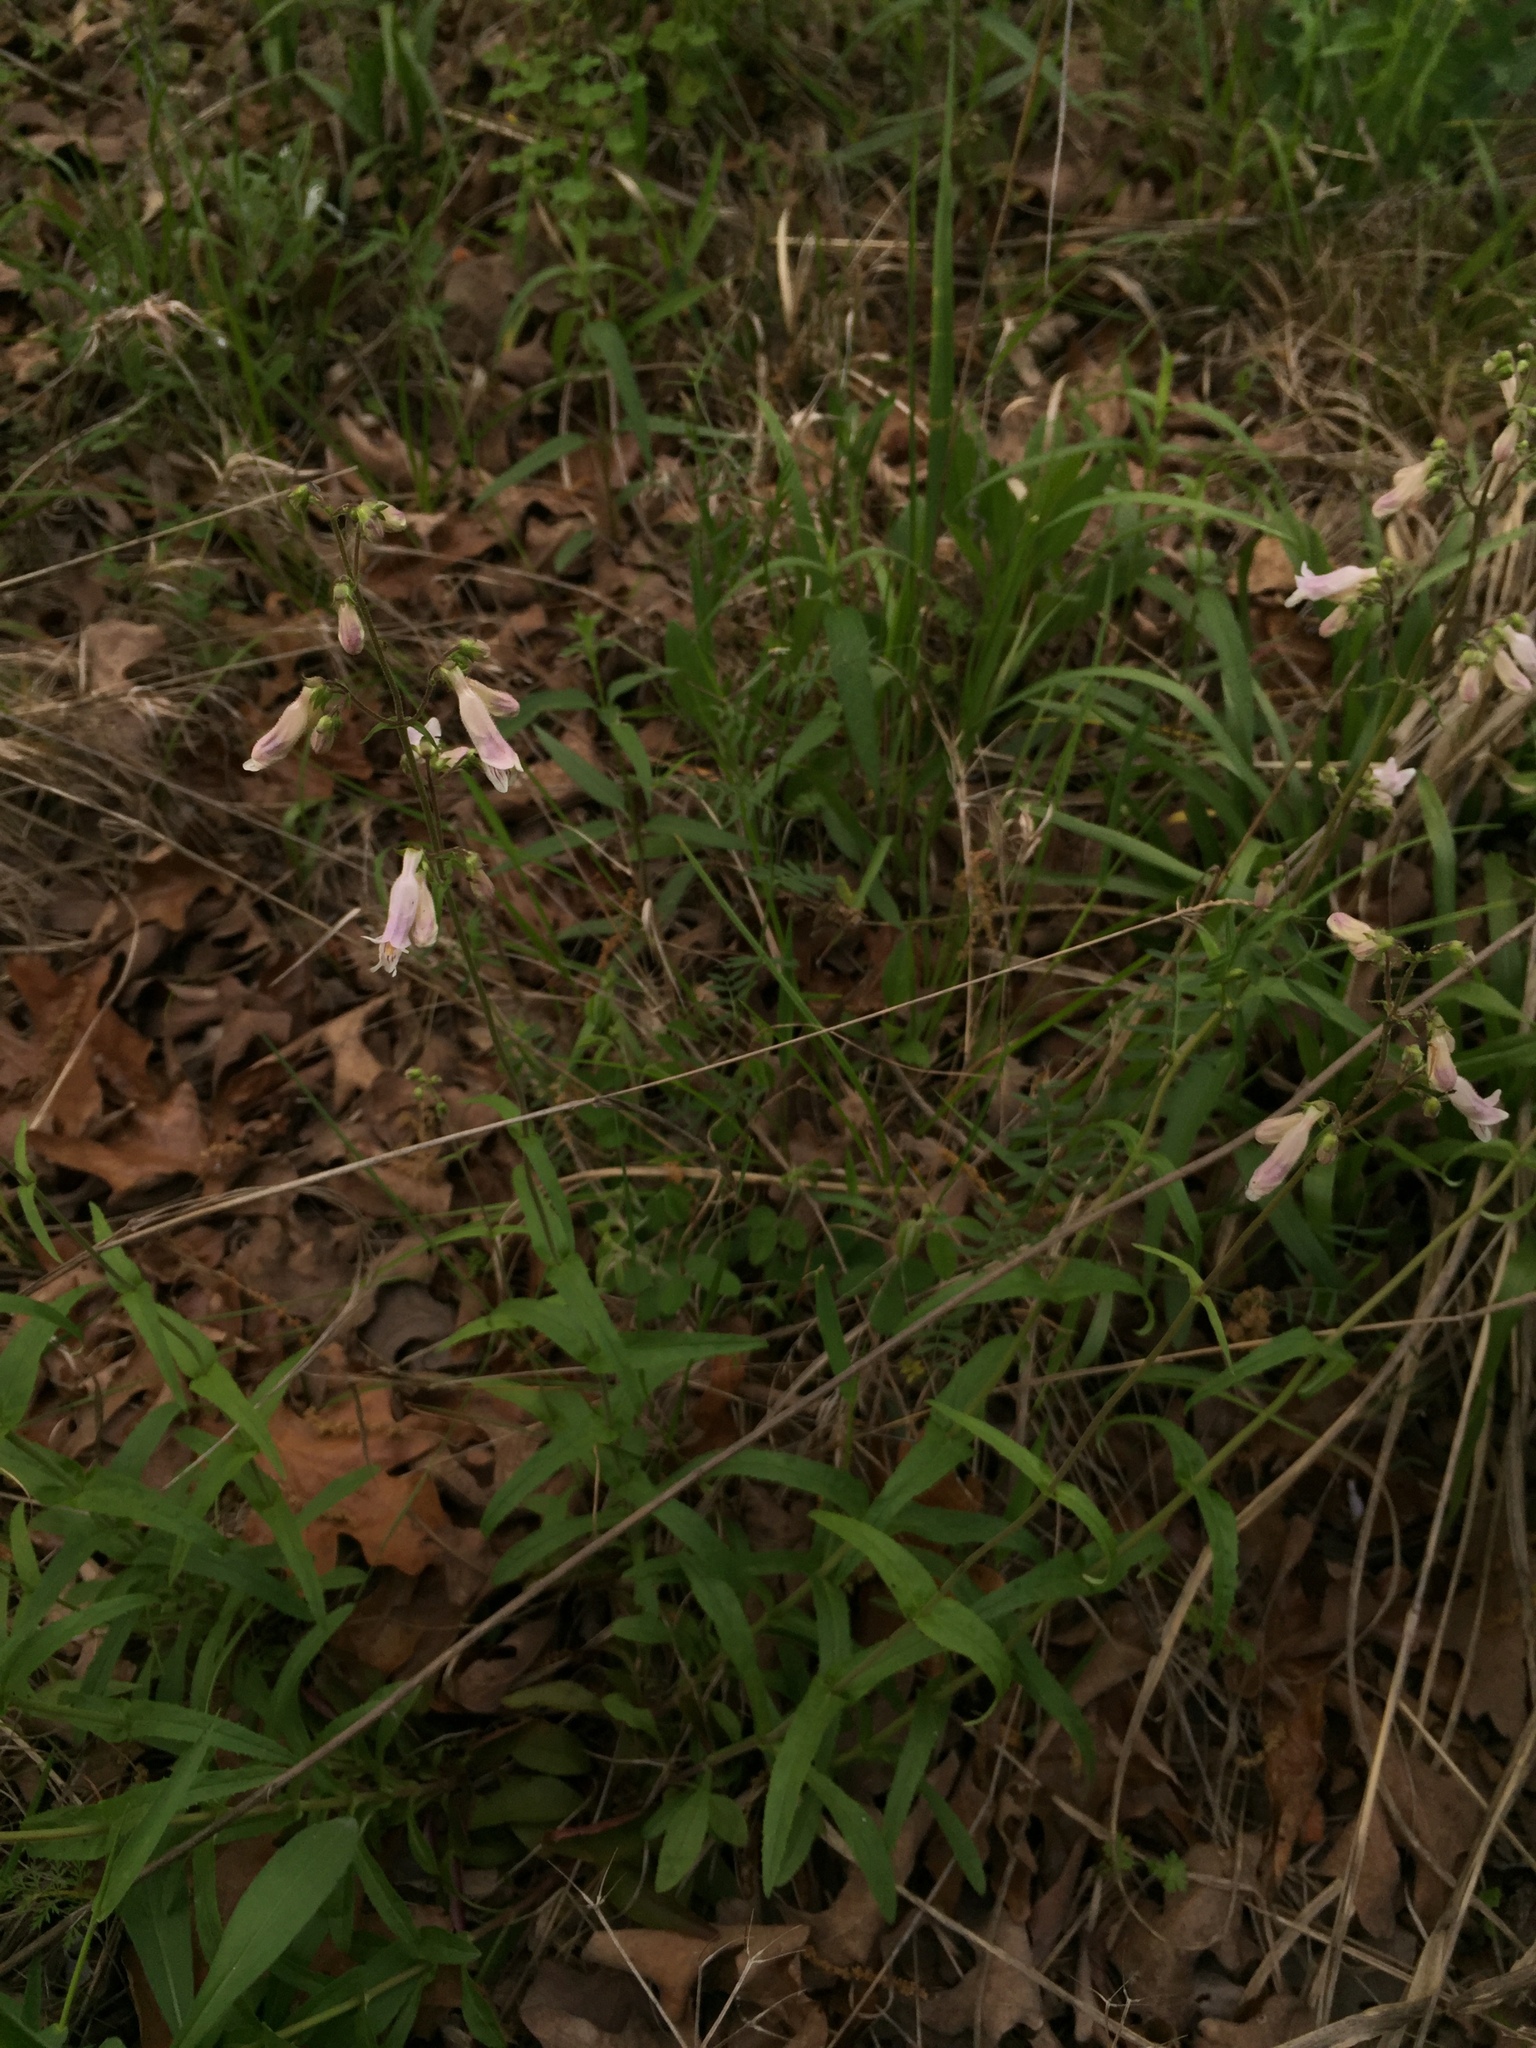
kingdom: Plantae
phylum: Tracheophyta
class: Magnoliopsida
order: Lamiales
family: Plantaginaceae
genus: Penstemon
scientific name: Penstemon laxiflorus
